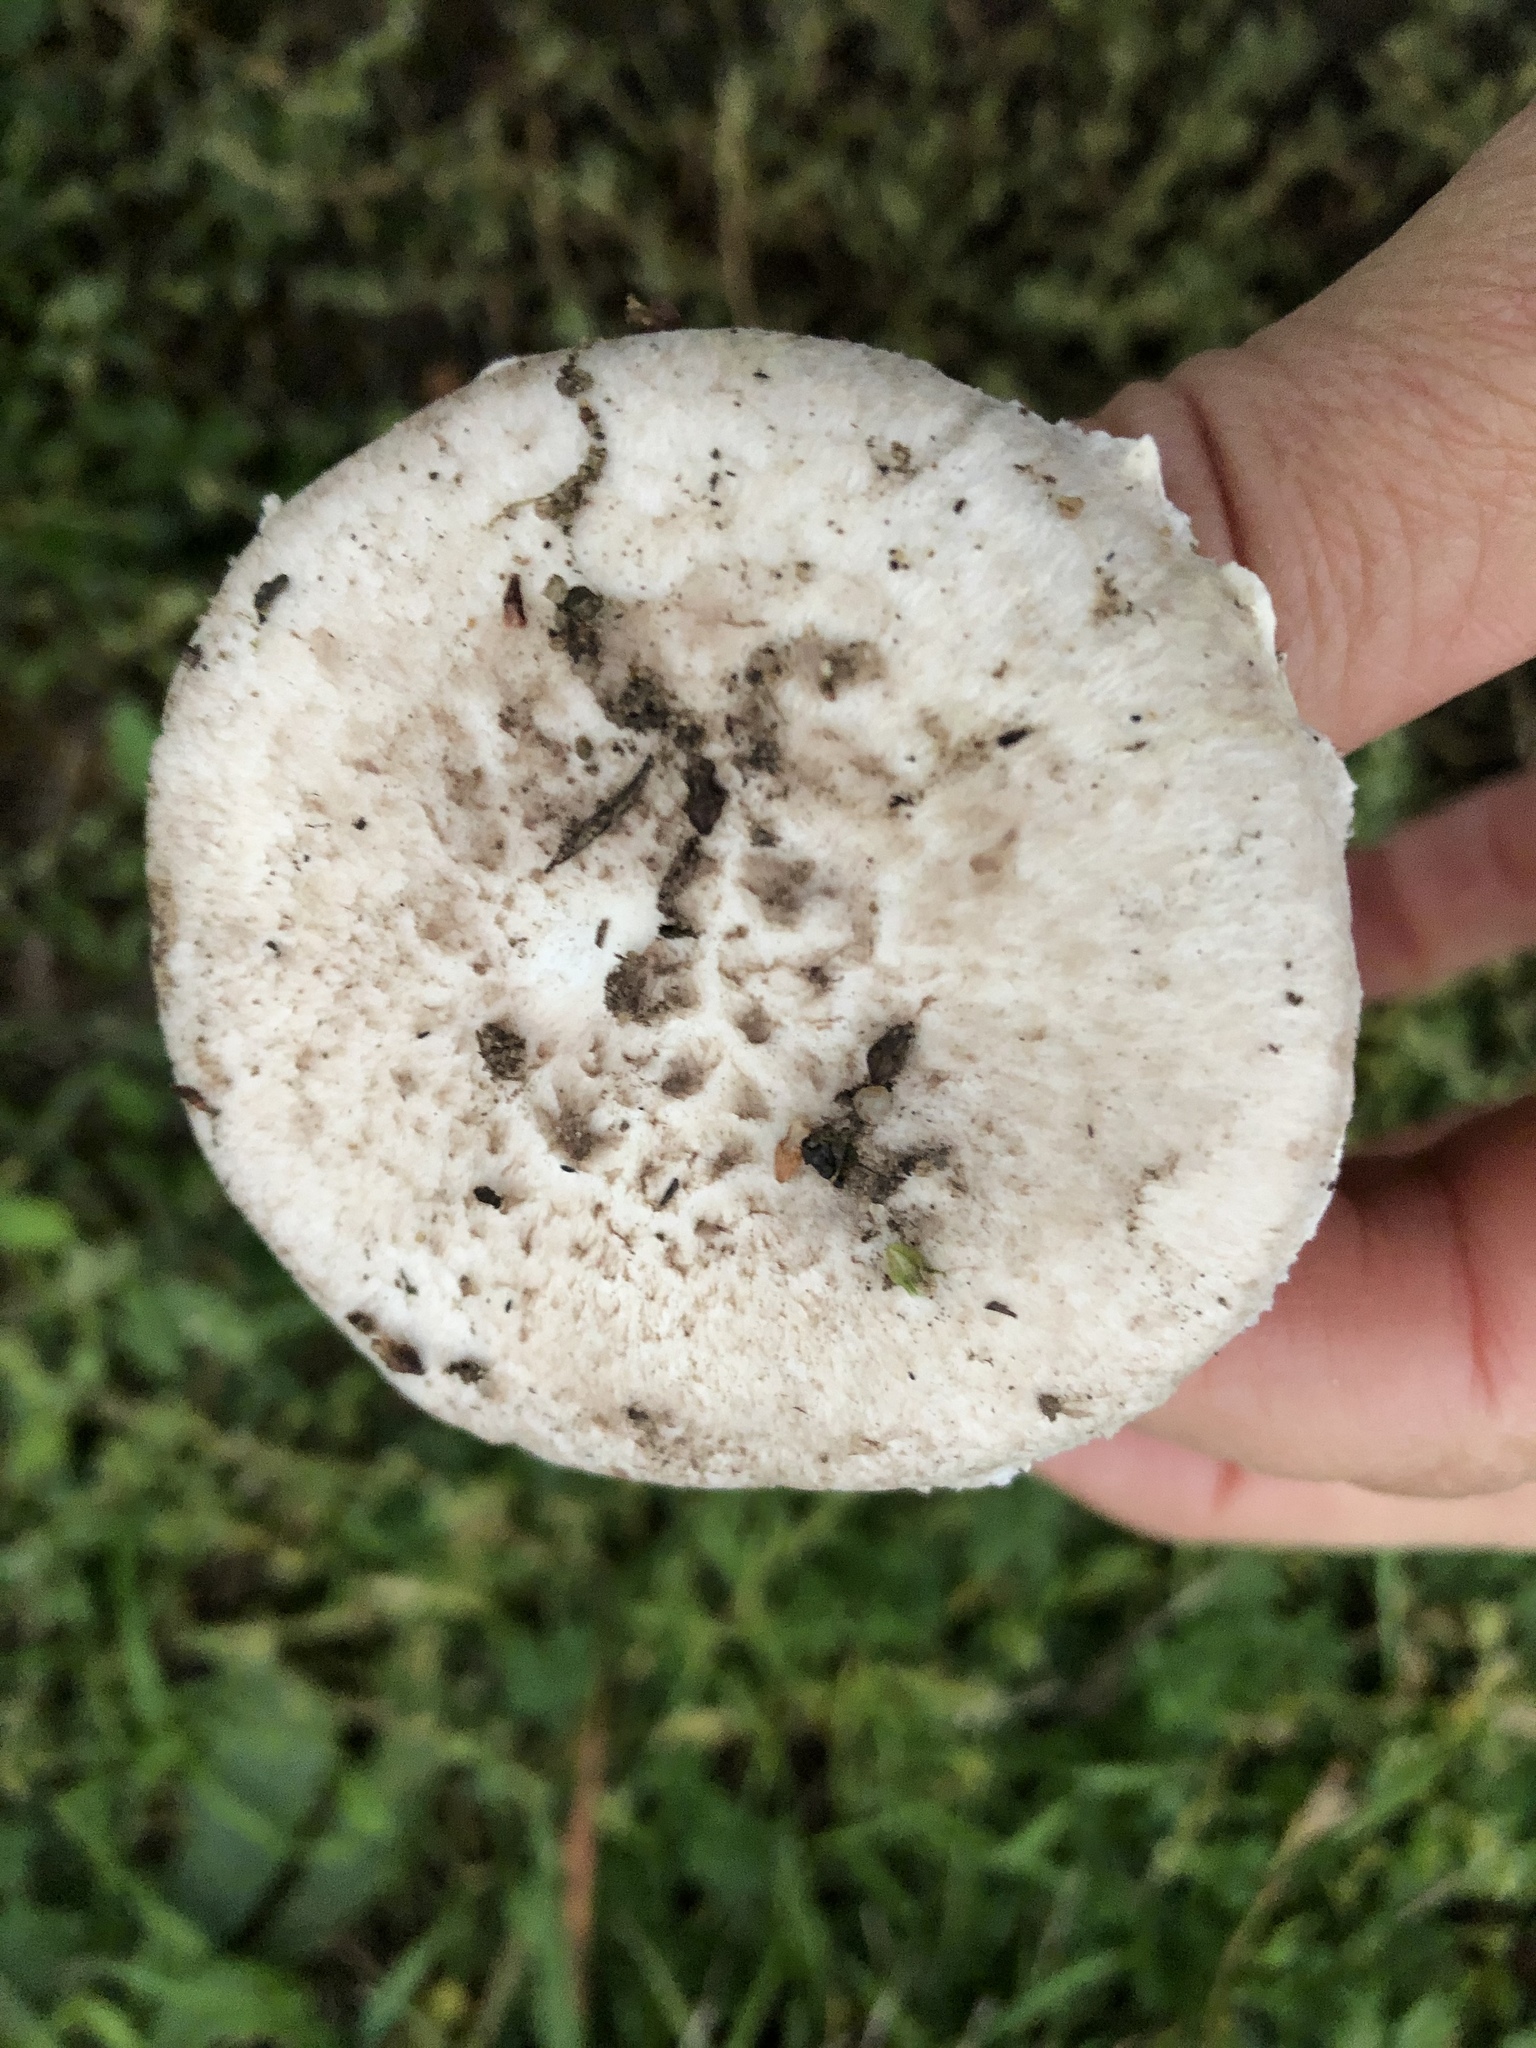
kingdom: Fungi
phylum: Basidiomycota
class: Agaricomycetes
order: Agaricales
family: Agaricaceae
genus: Agaricus
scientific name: Agaricus campestris
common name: Field mushroom
